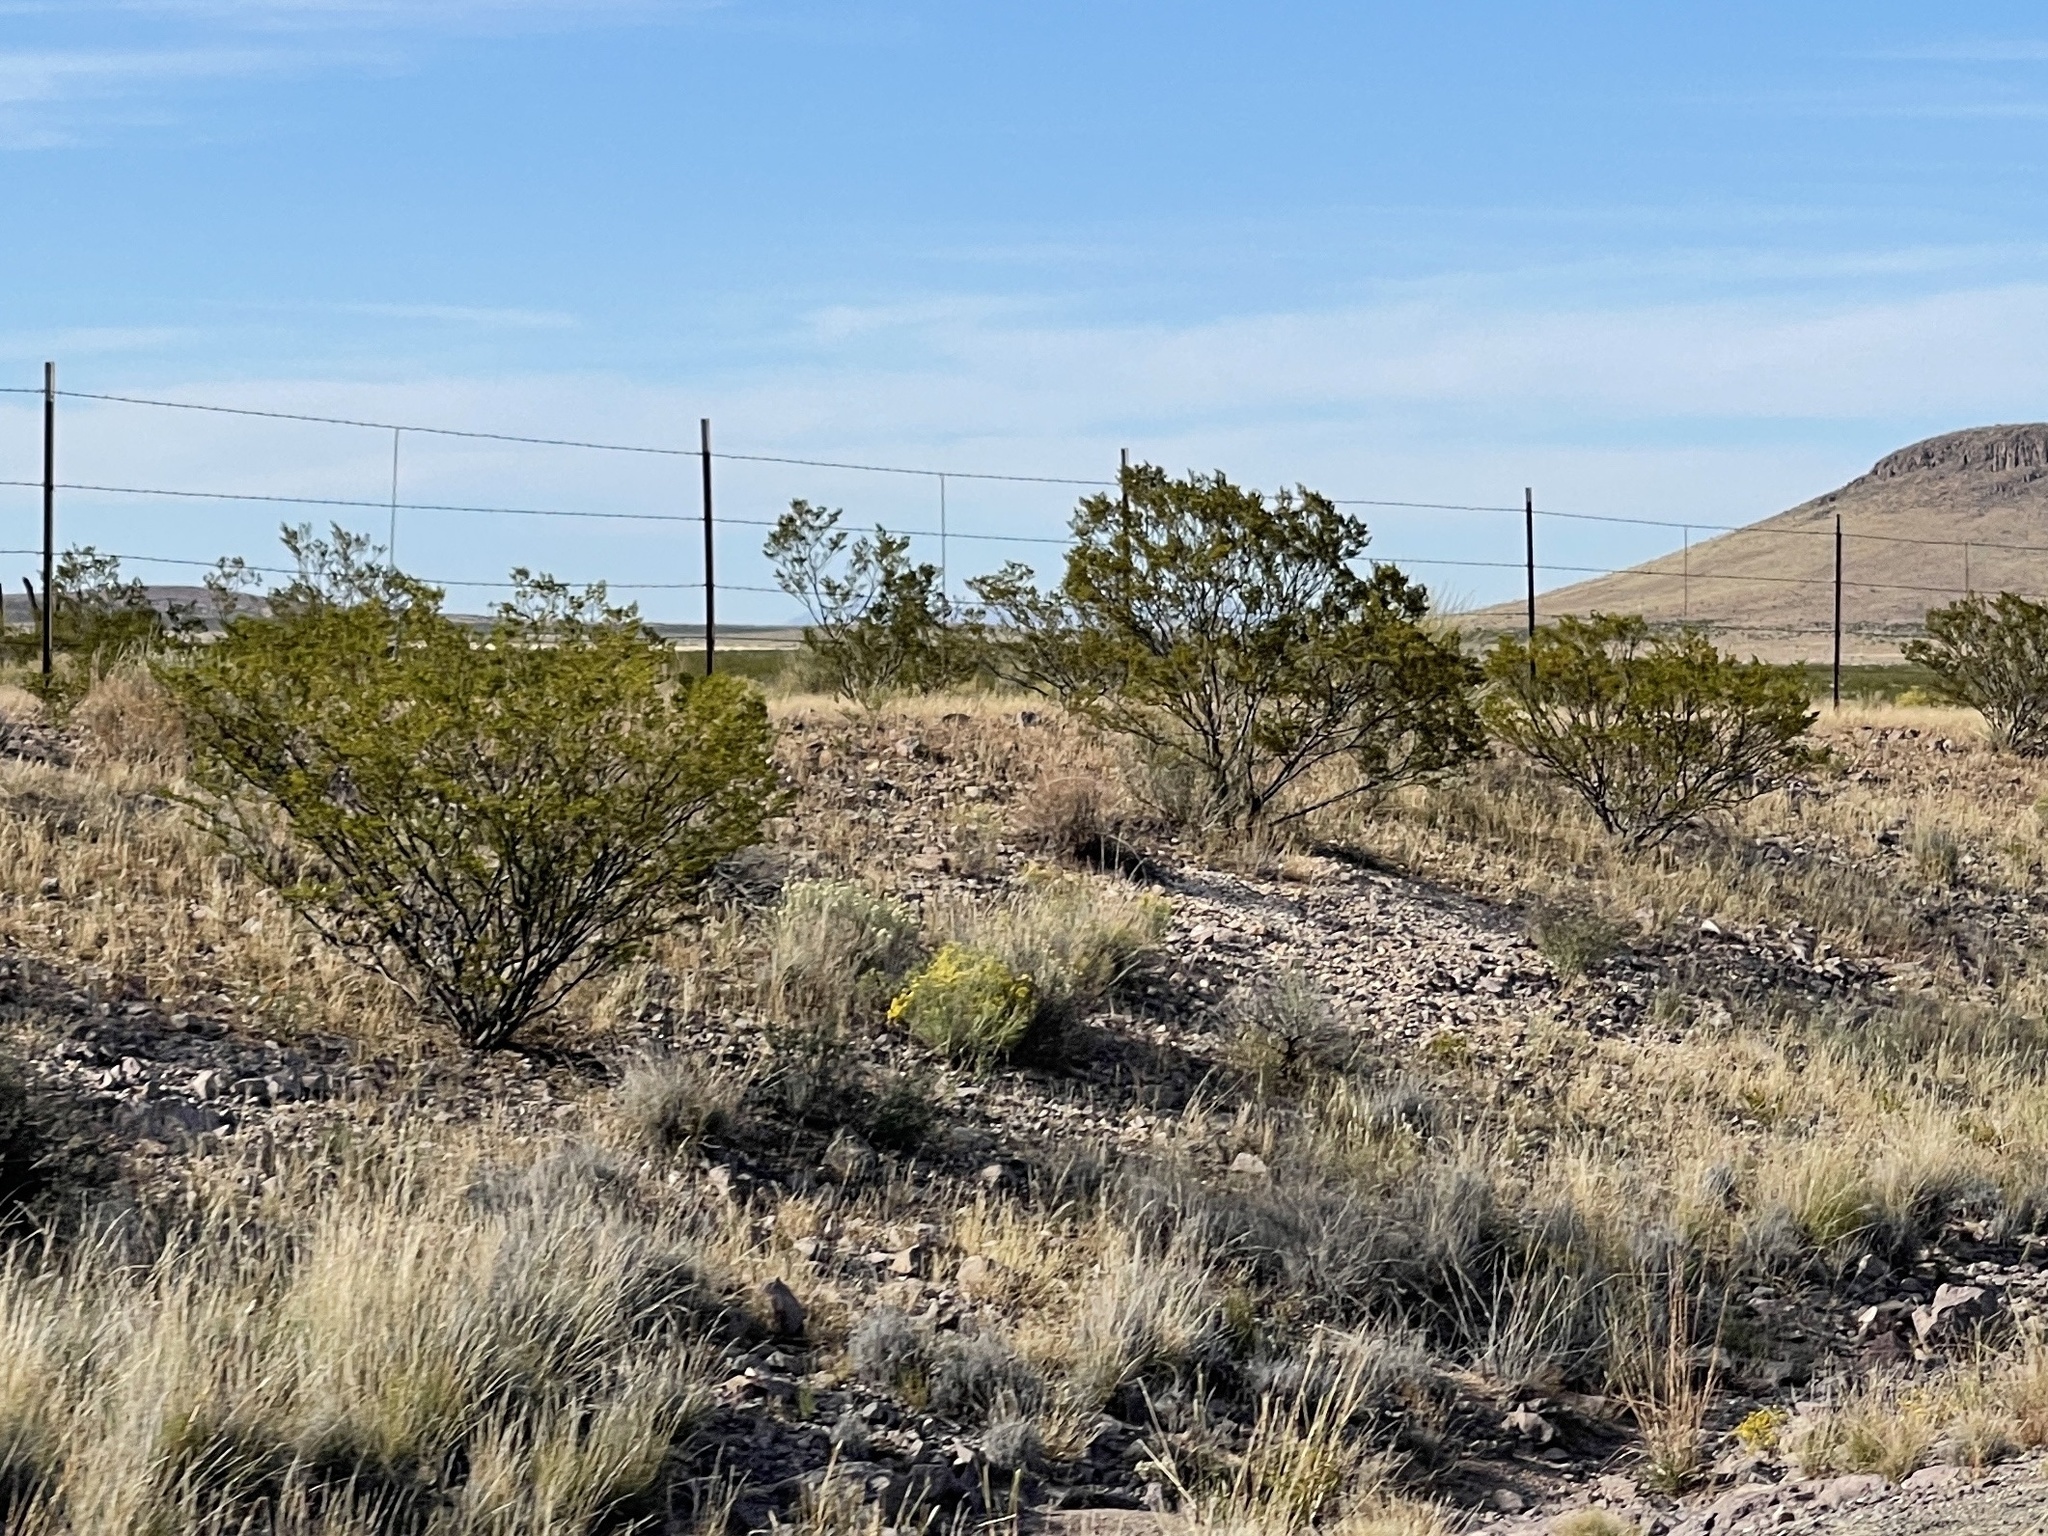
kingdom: Plantae
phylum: Tracheophyta
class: Magnoliopsida
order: Zygophyllales
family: Zygophyllaceae
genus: Larrea
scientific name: Larrea tridentata
